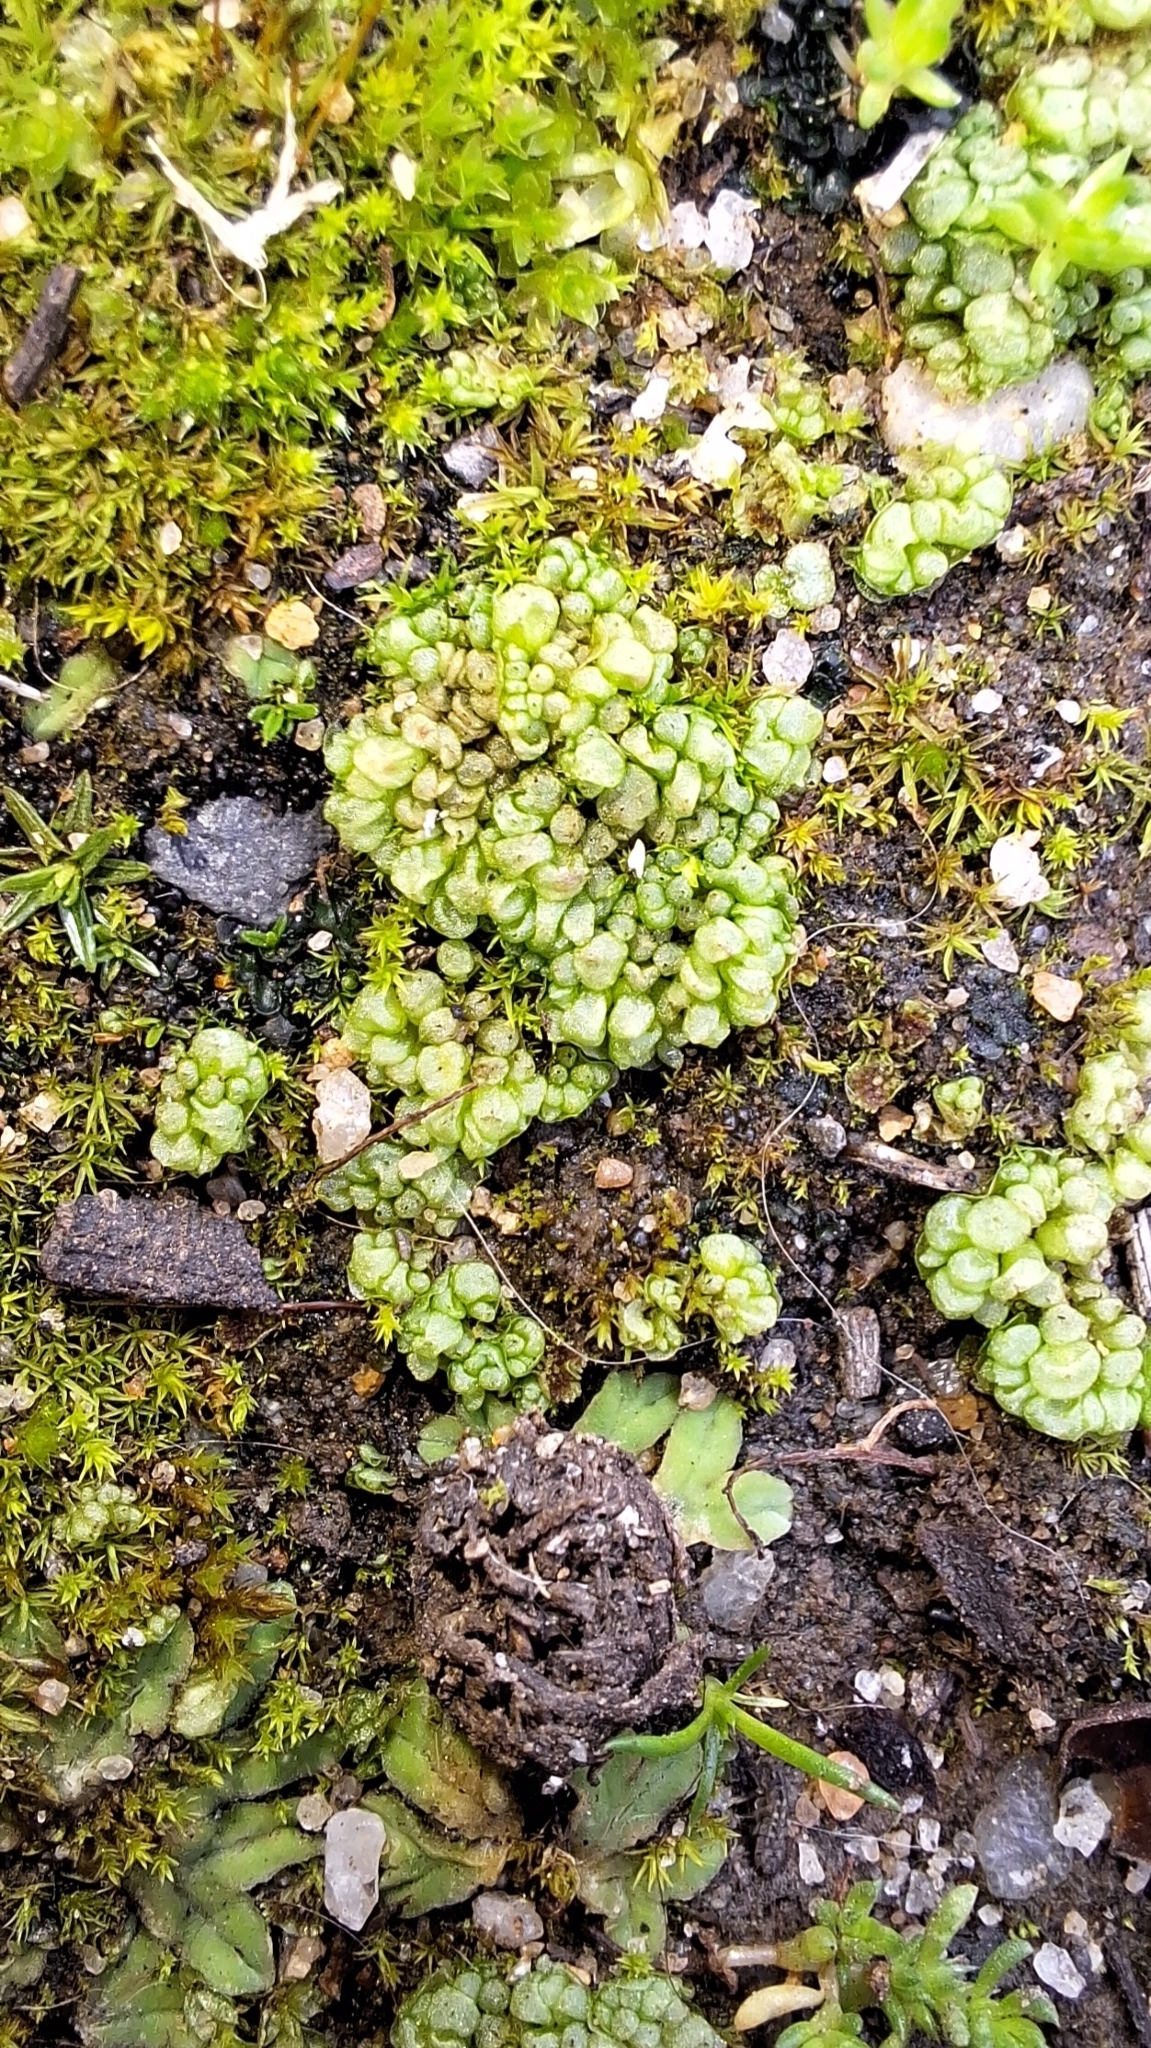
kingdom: Plantae
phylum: Marchantiophyta
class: Marchantiopsida
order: Sphaerocarpales
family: Sphaerocarpaceae
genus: Sphaerocarpos
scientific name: Sphaerocarpos texanus
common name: Texas balloonwort
